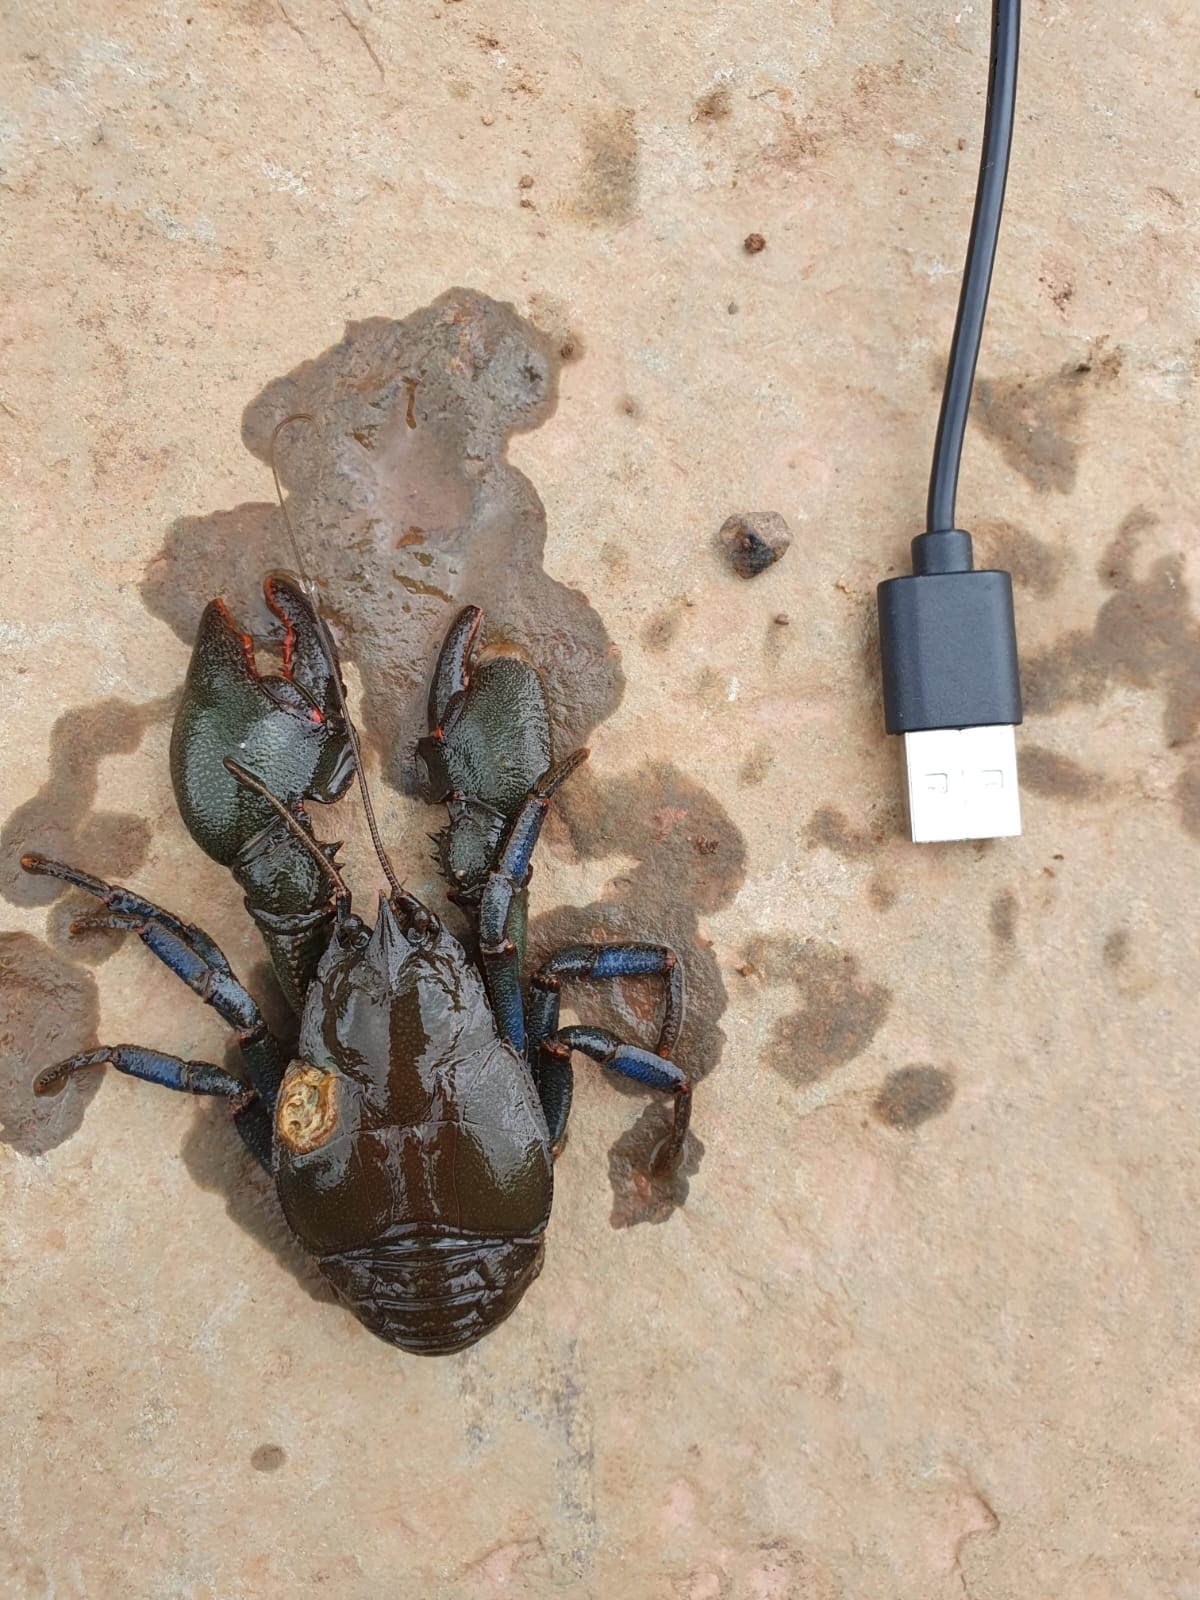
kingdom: Animalia
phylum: Arthropoda
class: Malacostraca
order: Decapoda
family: Aeglidae
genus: Aegla
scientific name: Aegla jarai
